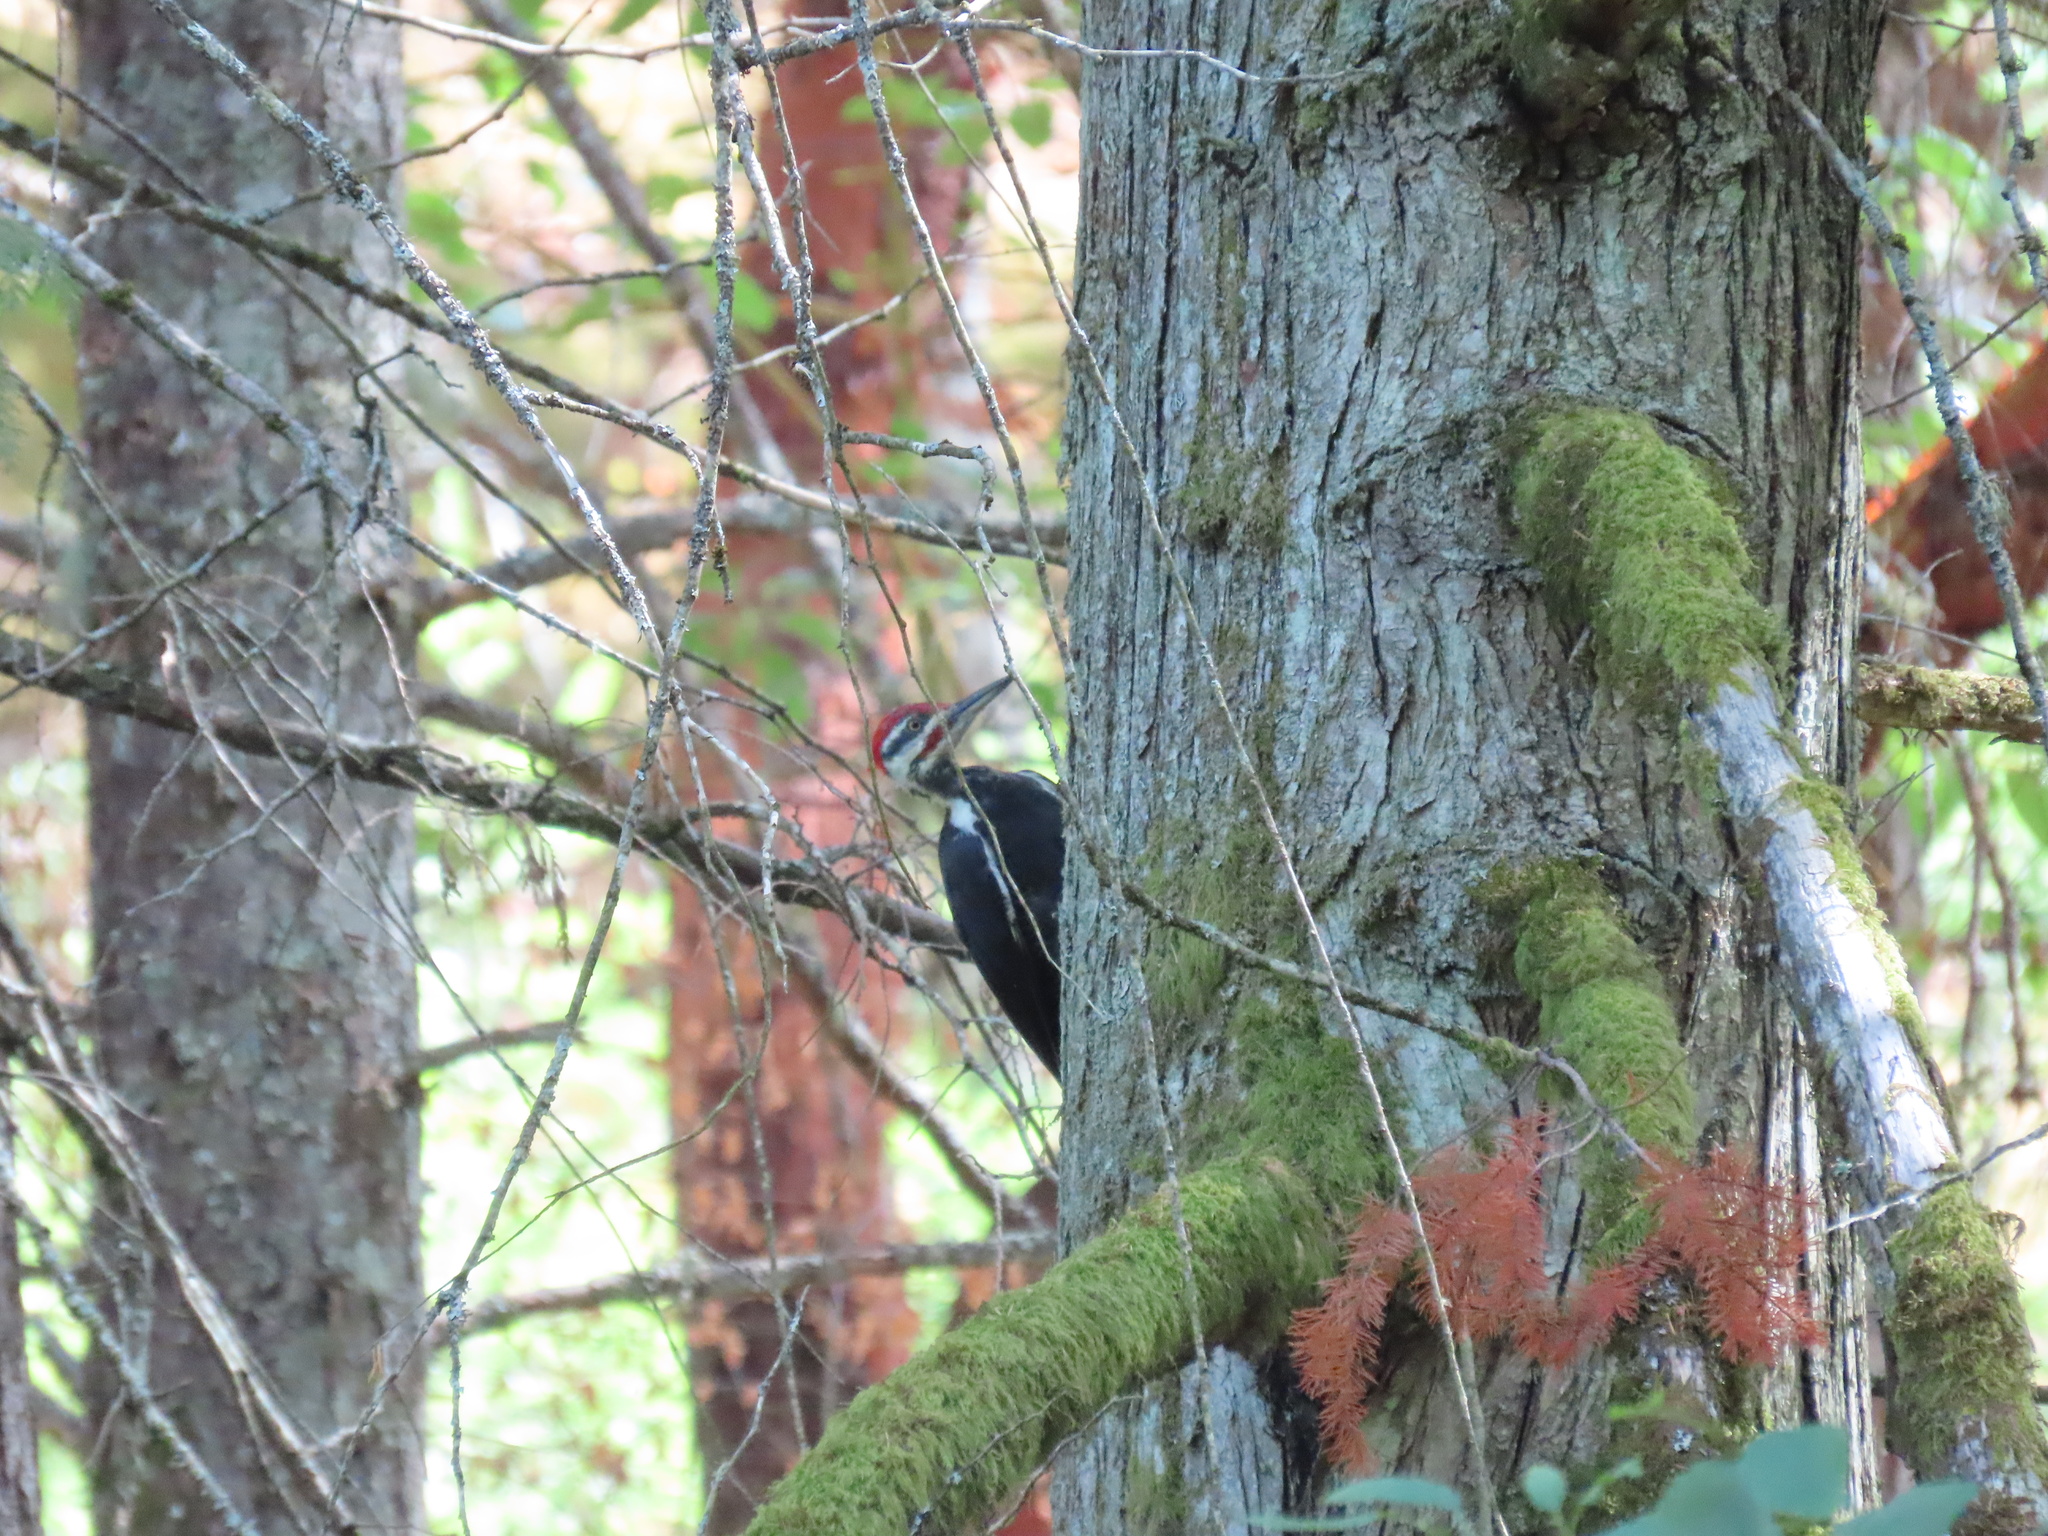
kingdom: Animalia
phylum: Chordata
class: Aves
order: Piciformes
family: Picidae
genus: Dryocopus
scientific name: Dryocopus pileatus
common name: Pileated woodpecker
